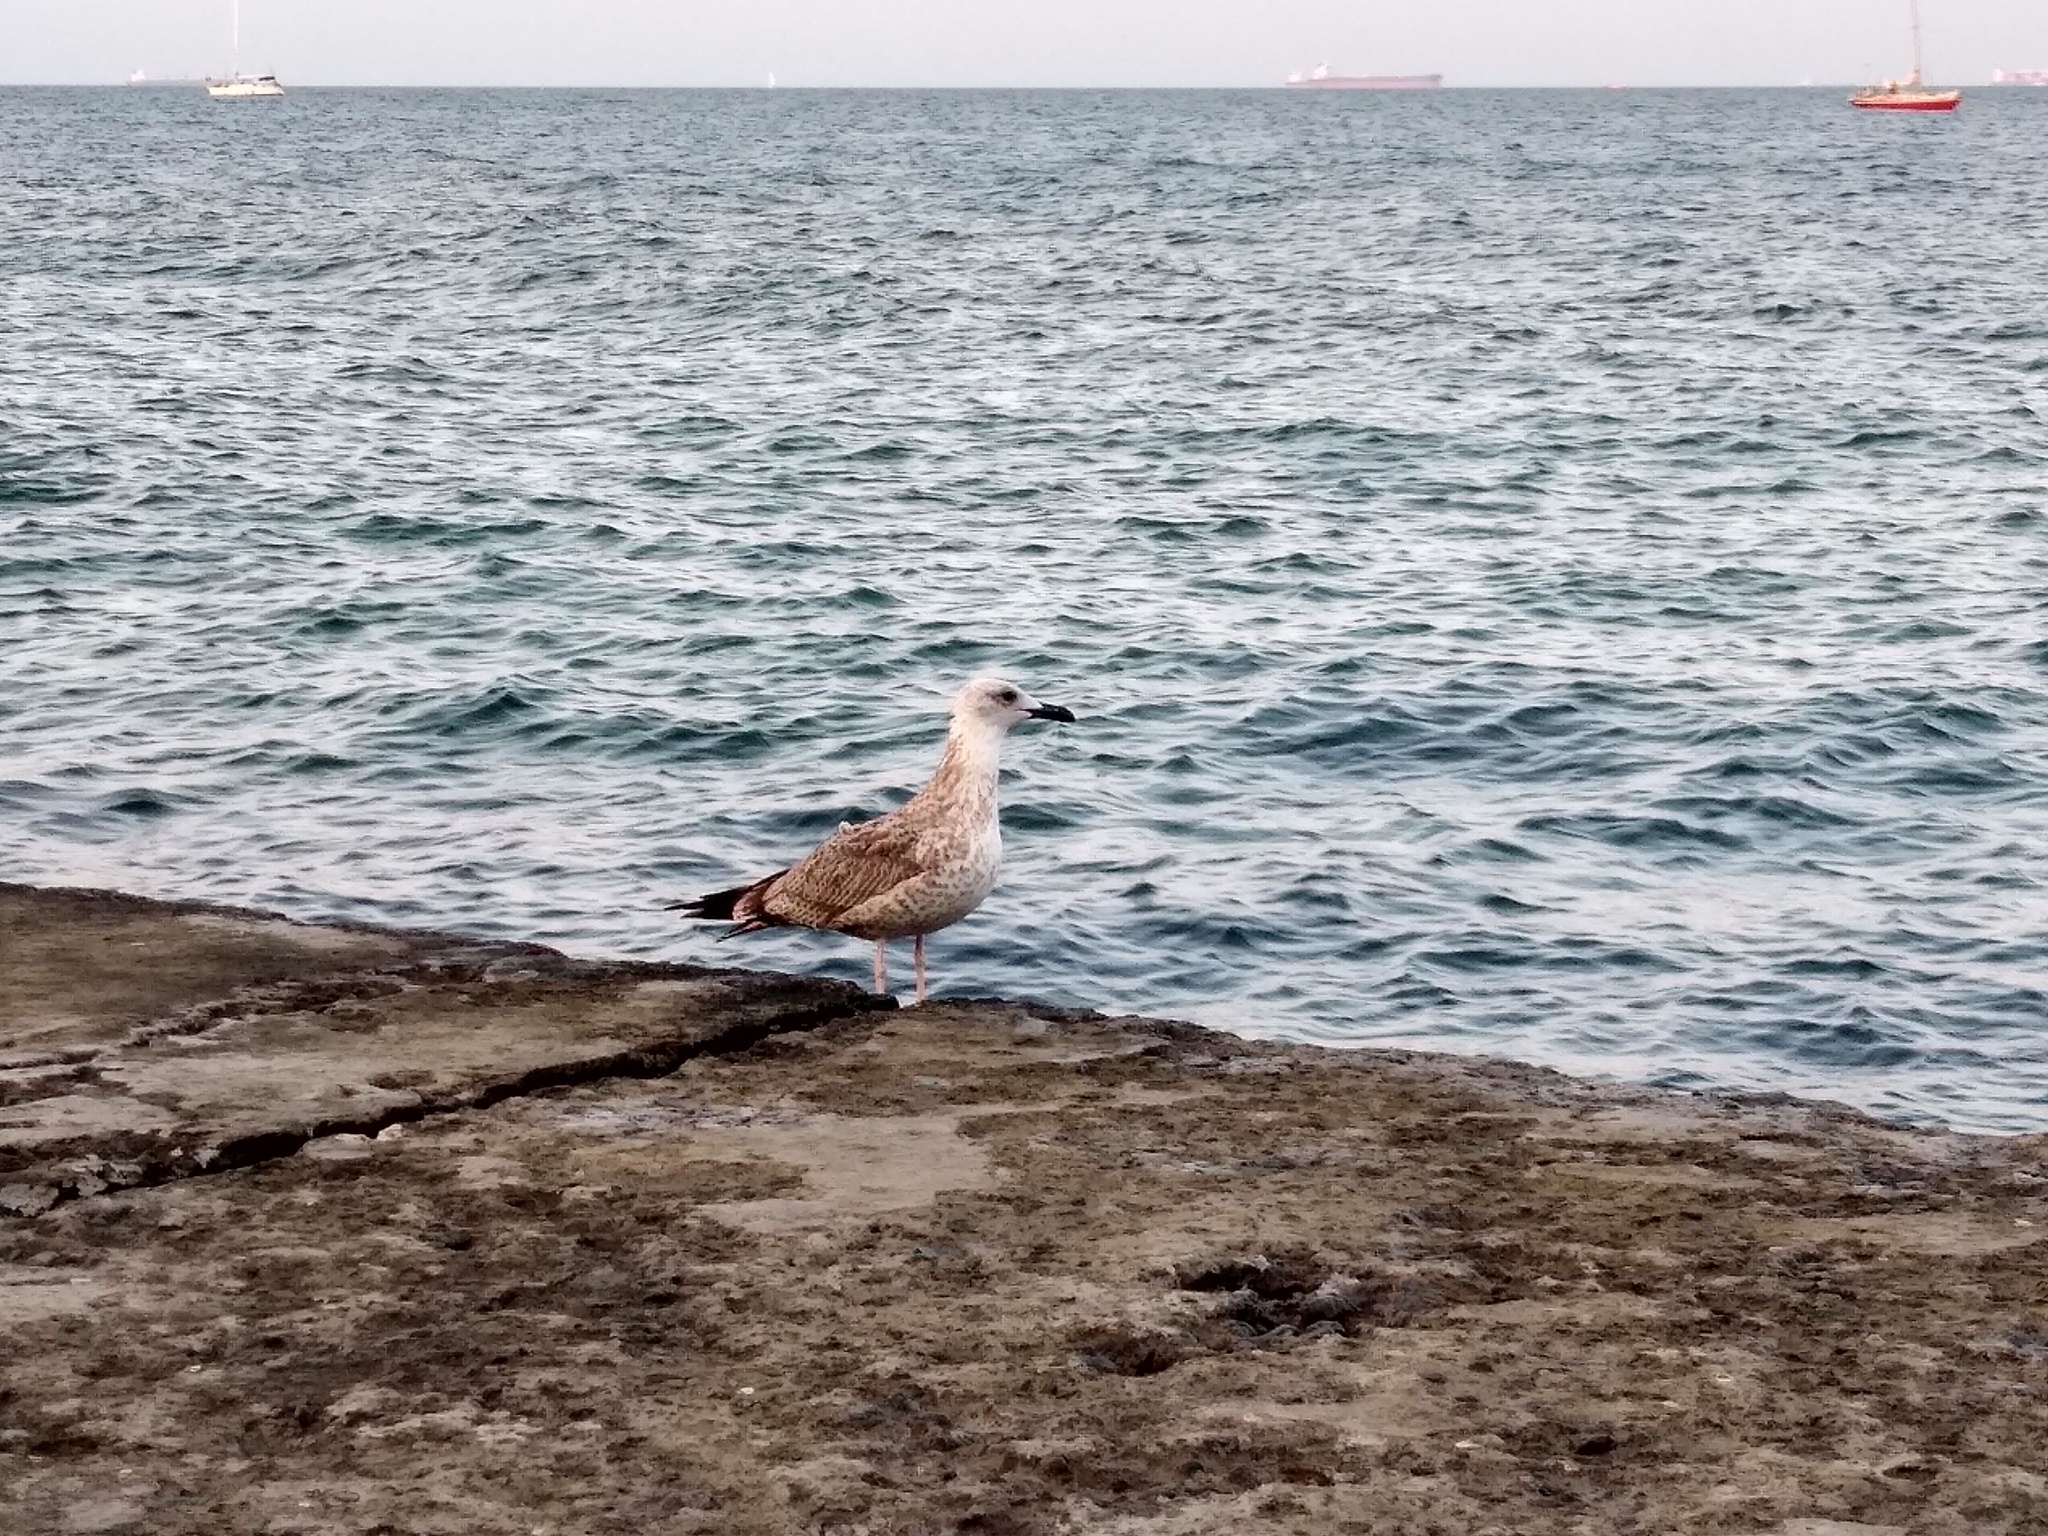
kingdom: Animalia
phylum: Chordata
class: Aves
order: Charadriiformes
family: Laridae
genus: Larus
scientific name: Larus michahellis
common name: Yellow-legged gull
